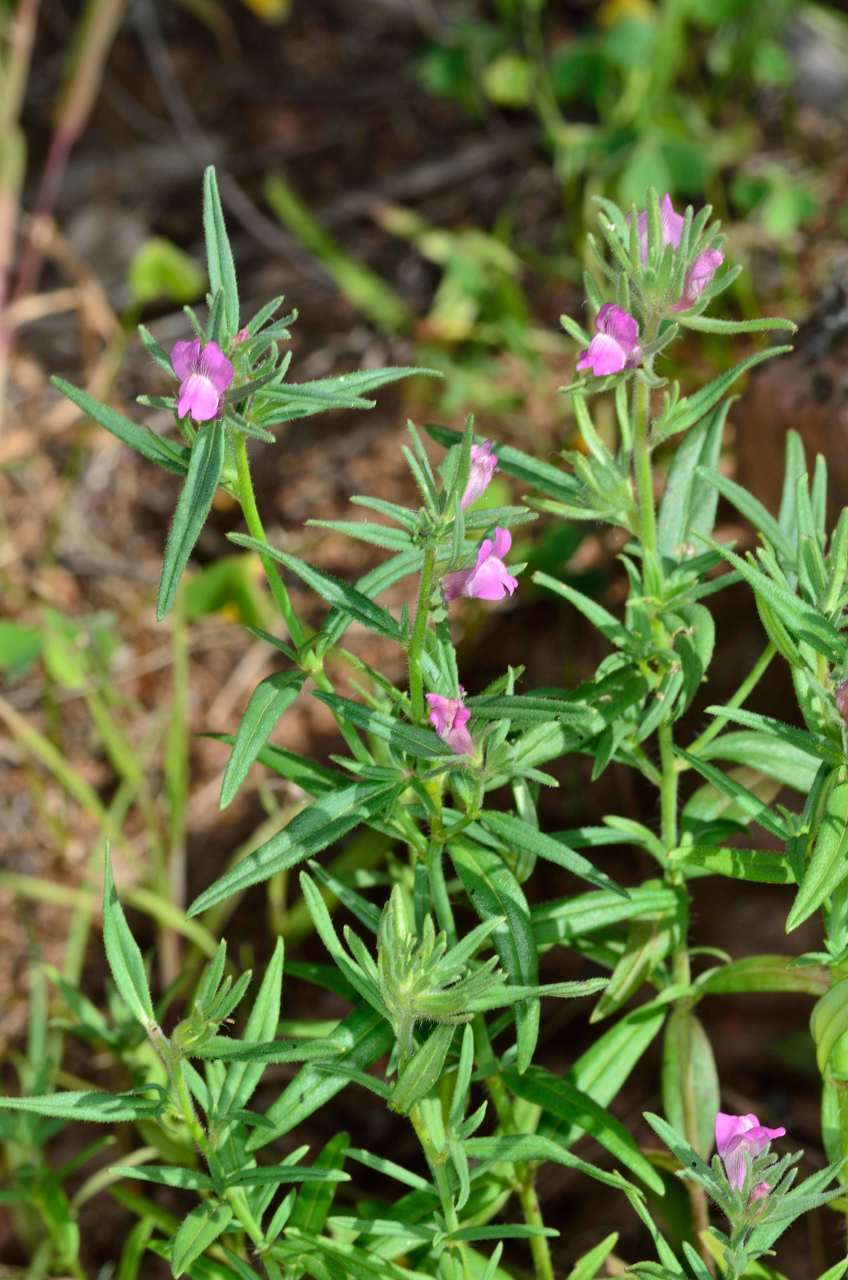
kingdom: Plantae
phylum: Tracheophyta
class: Magnoliopsida
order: Lamiales
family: Plantaginaceae
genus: Misopates
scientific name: Misopates orontium
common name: Weasel's-snout
